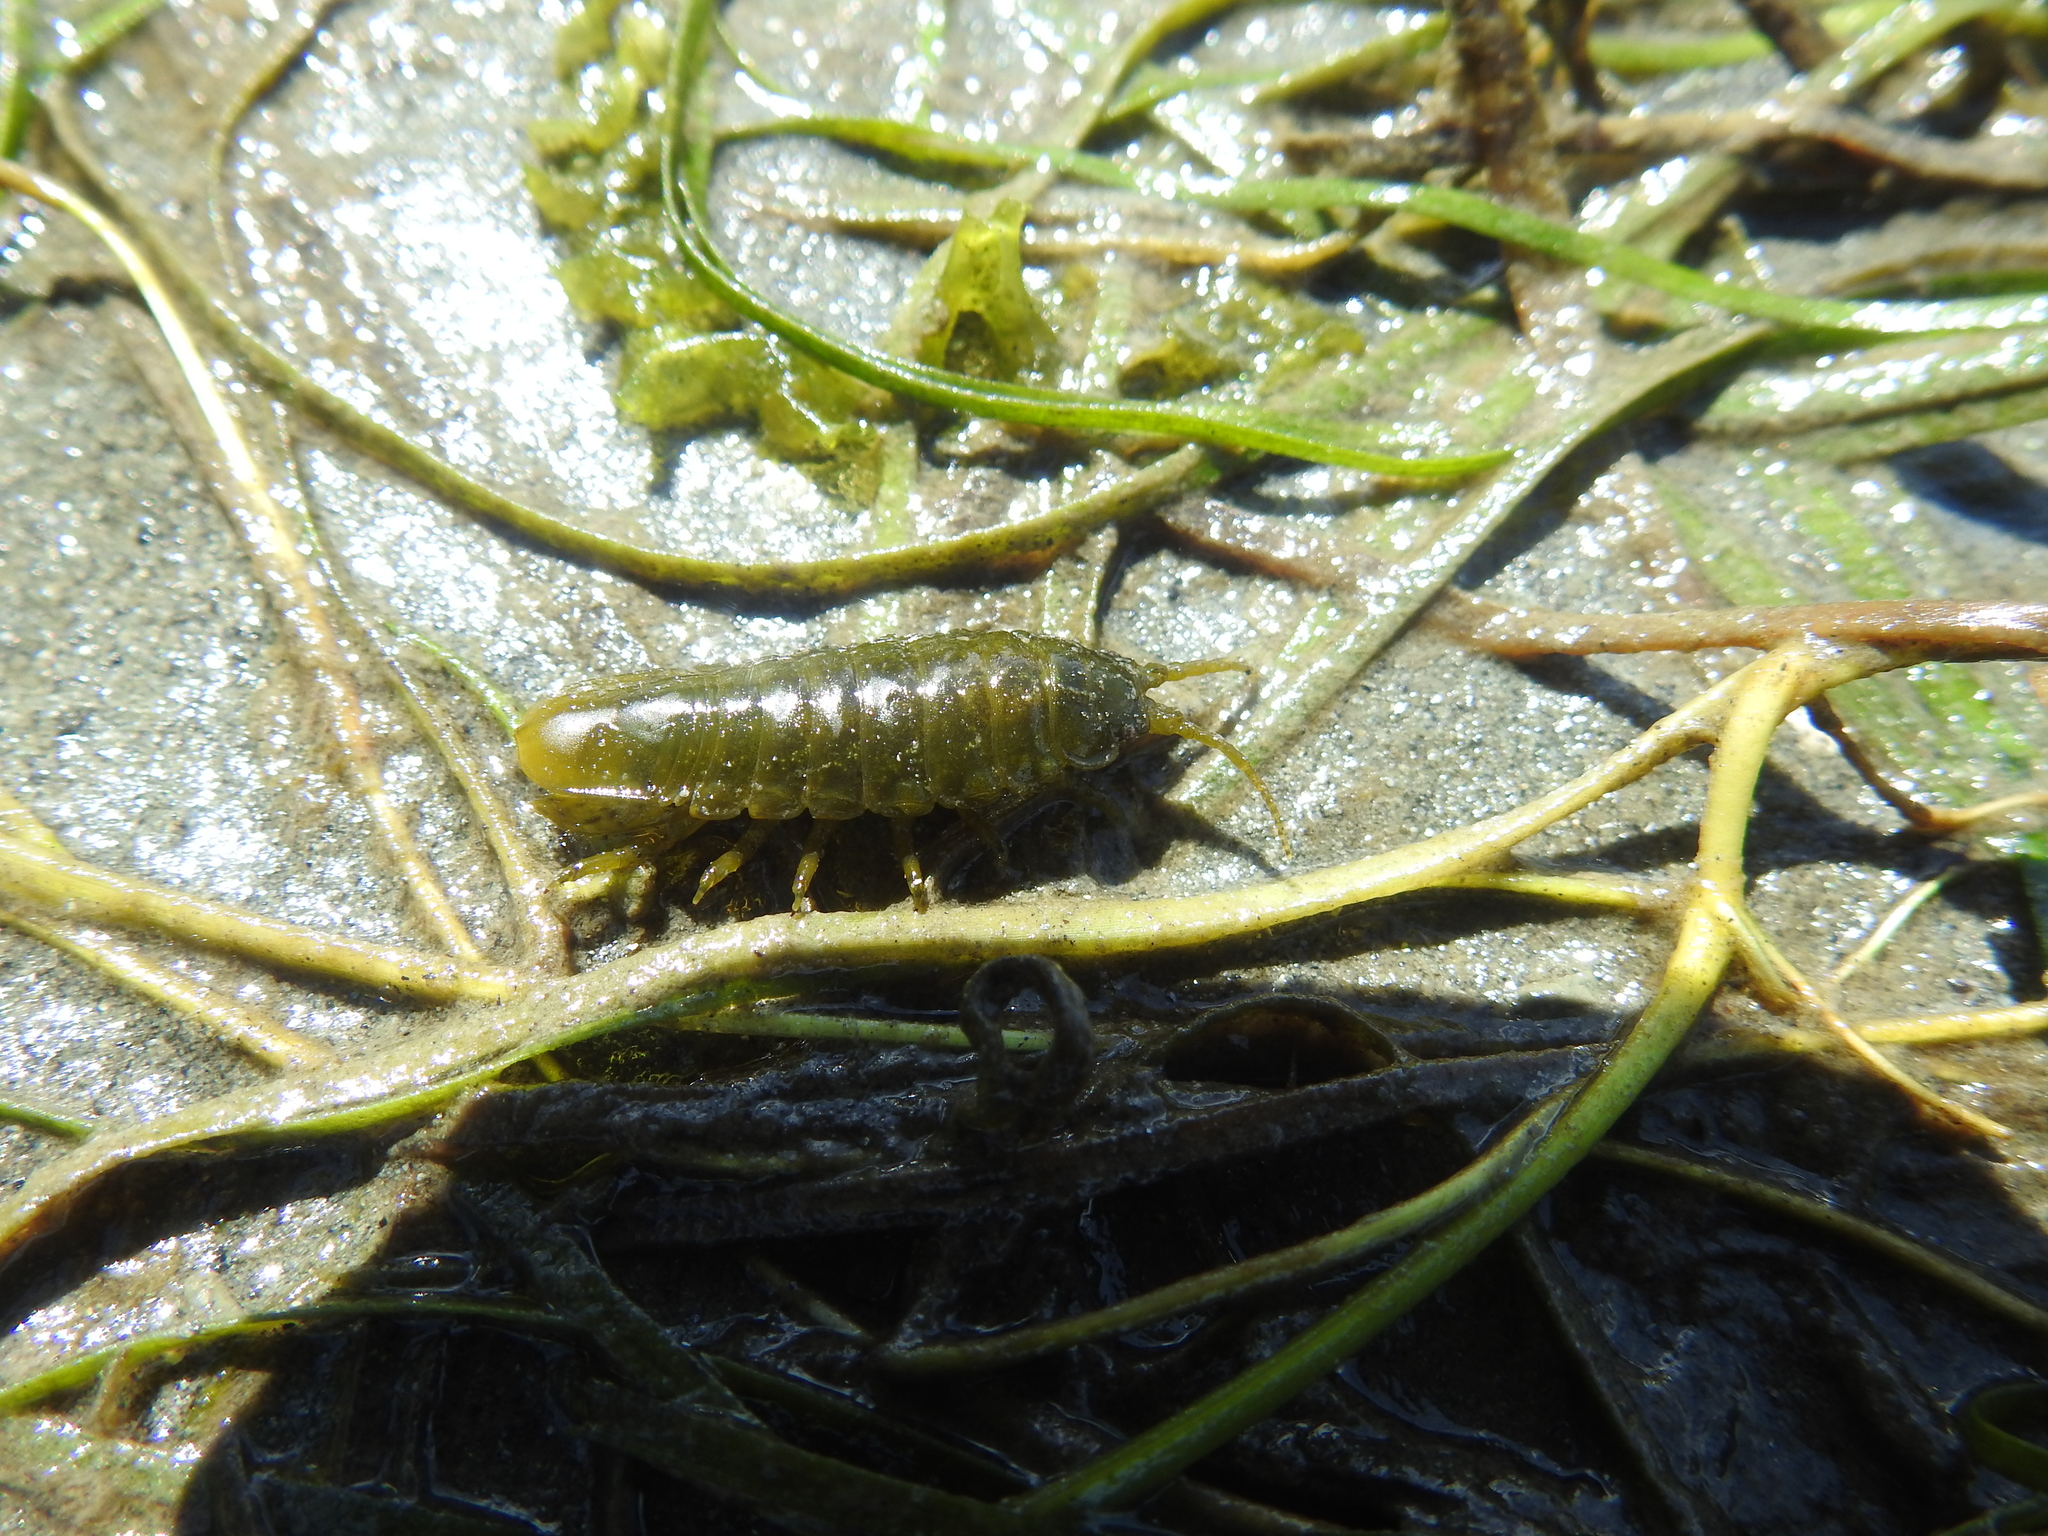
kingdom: Animalia
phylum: Arthropoda
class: Malacostraca
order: Isopoda
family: Idoteidae
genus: Pentidotea
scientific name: Pentidotea wosnesenskii
